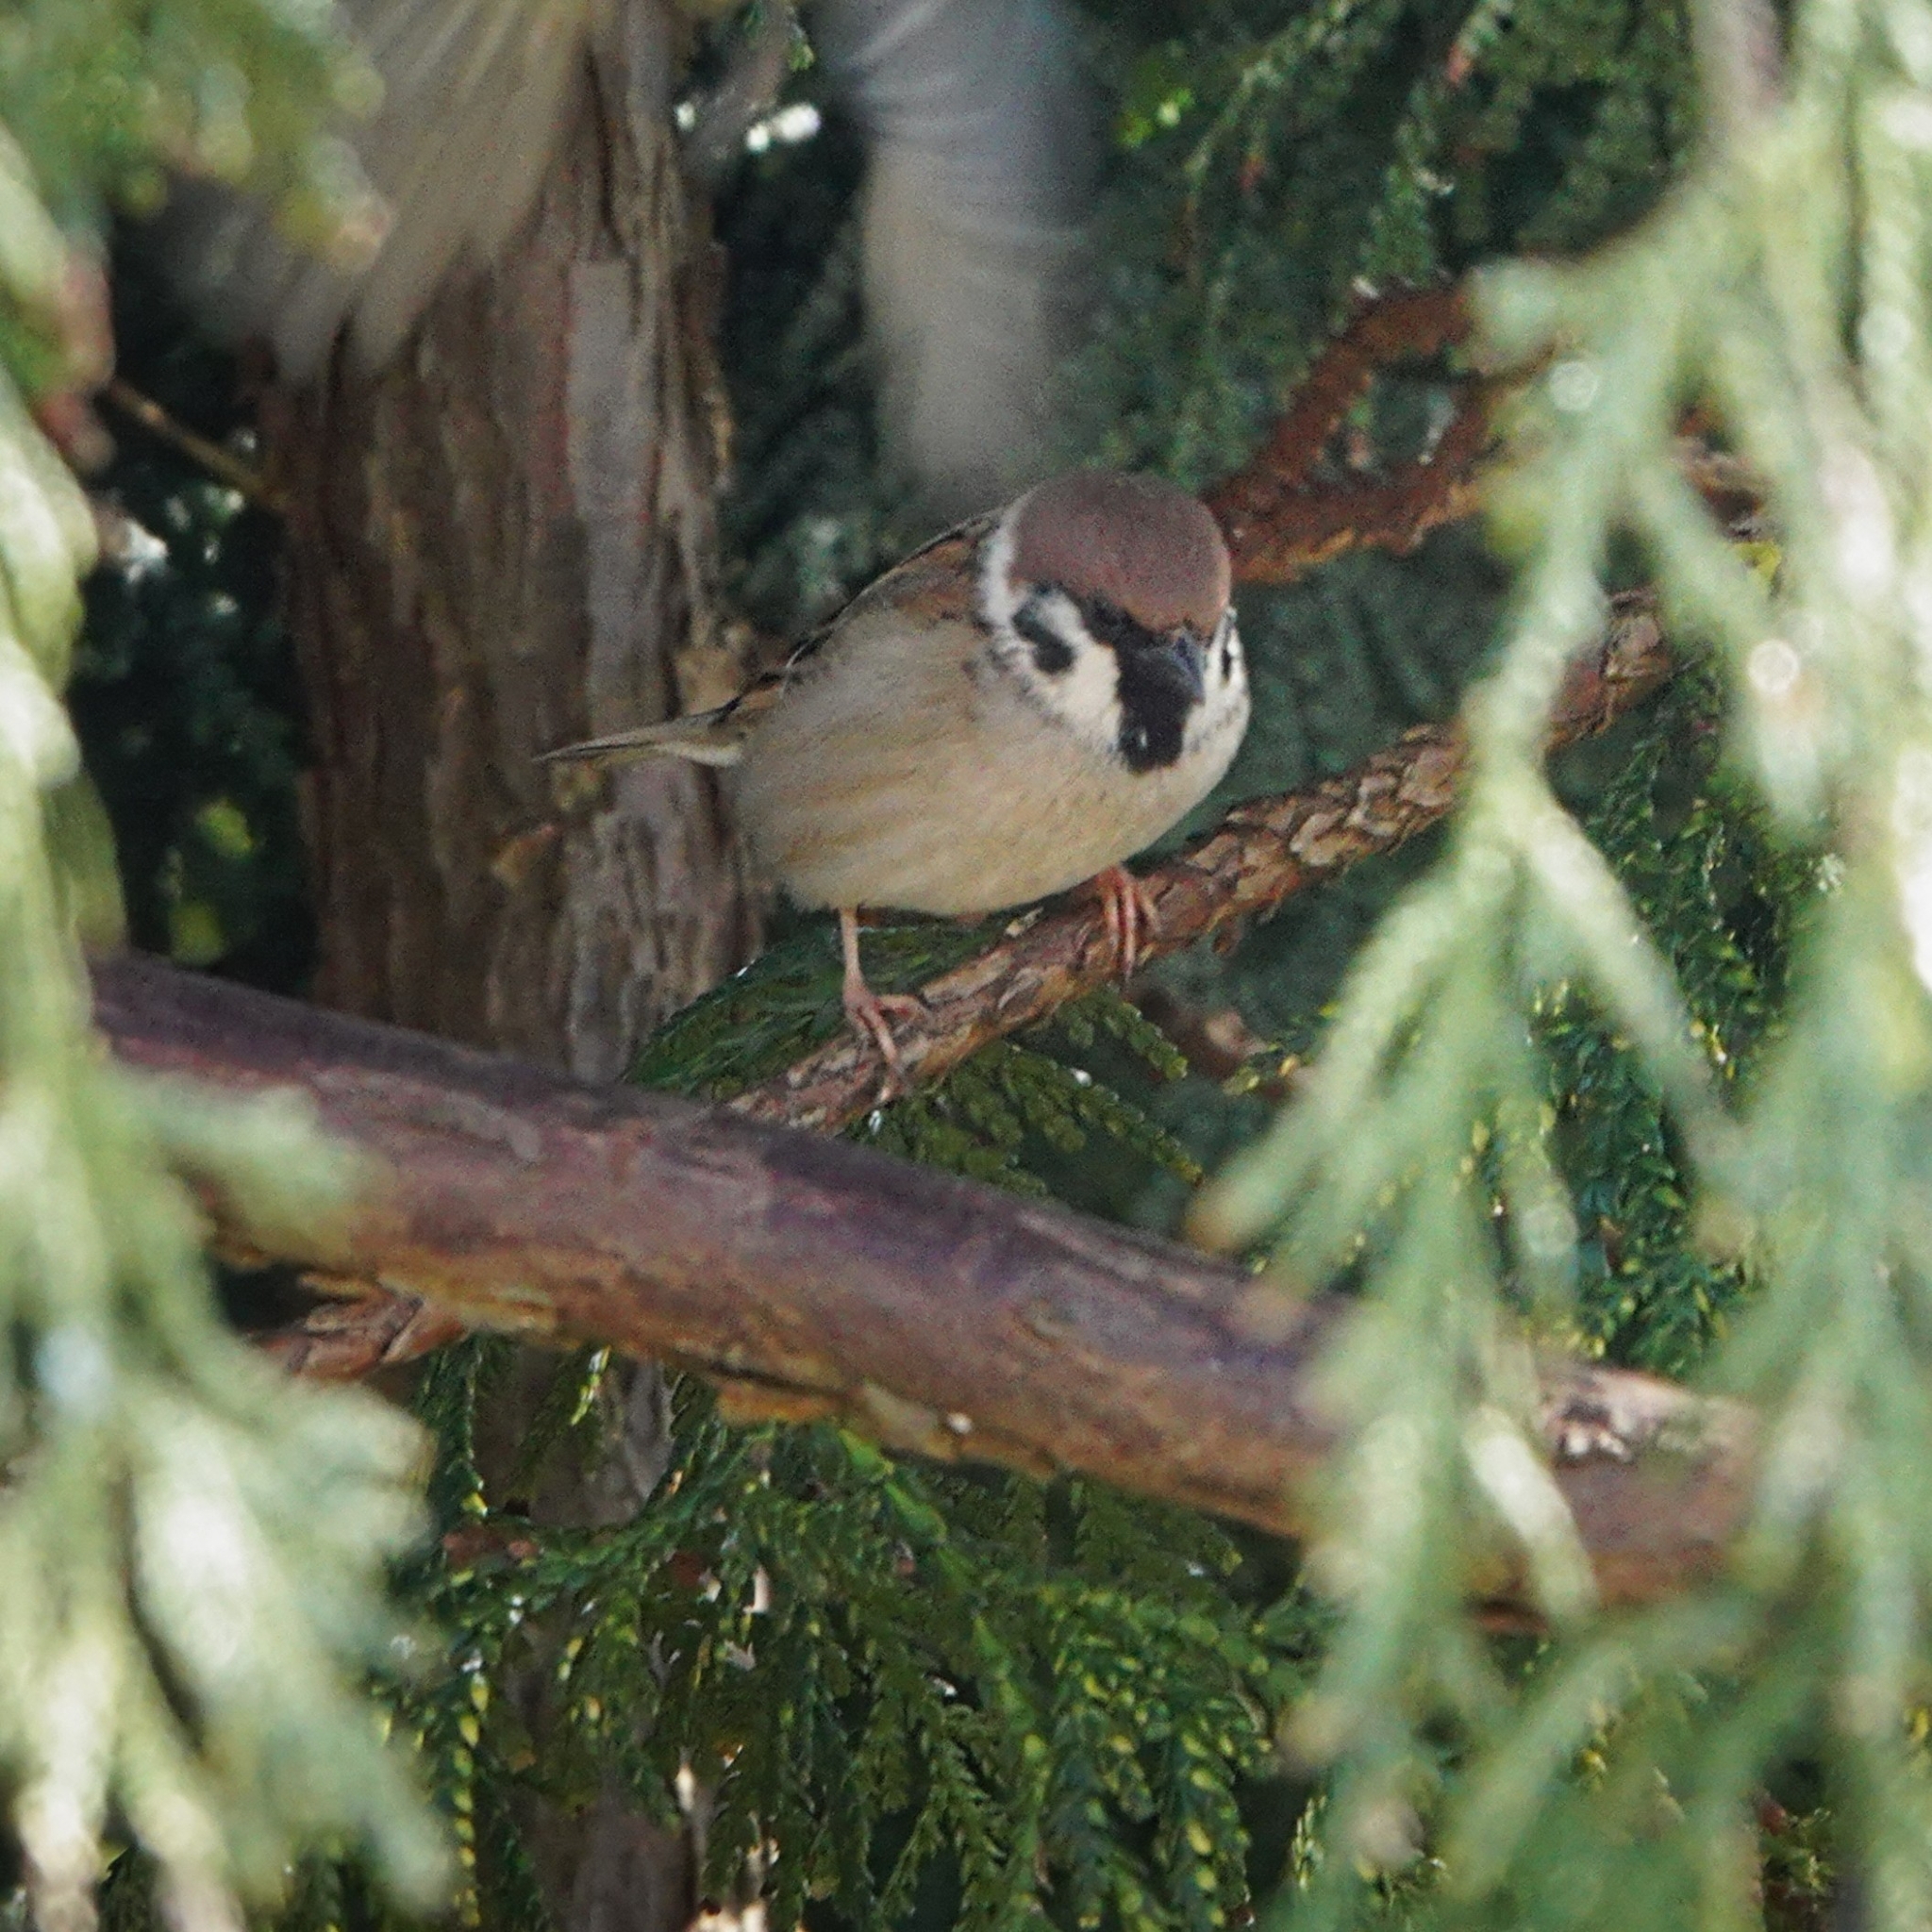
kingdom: Animalia
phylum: Chordata
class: Aves
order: Passeriformes
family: Passeridae
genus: Passer
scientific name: Passer montanus
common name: Eurasian tree sparrow
